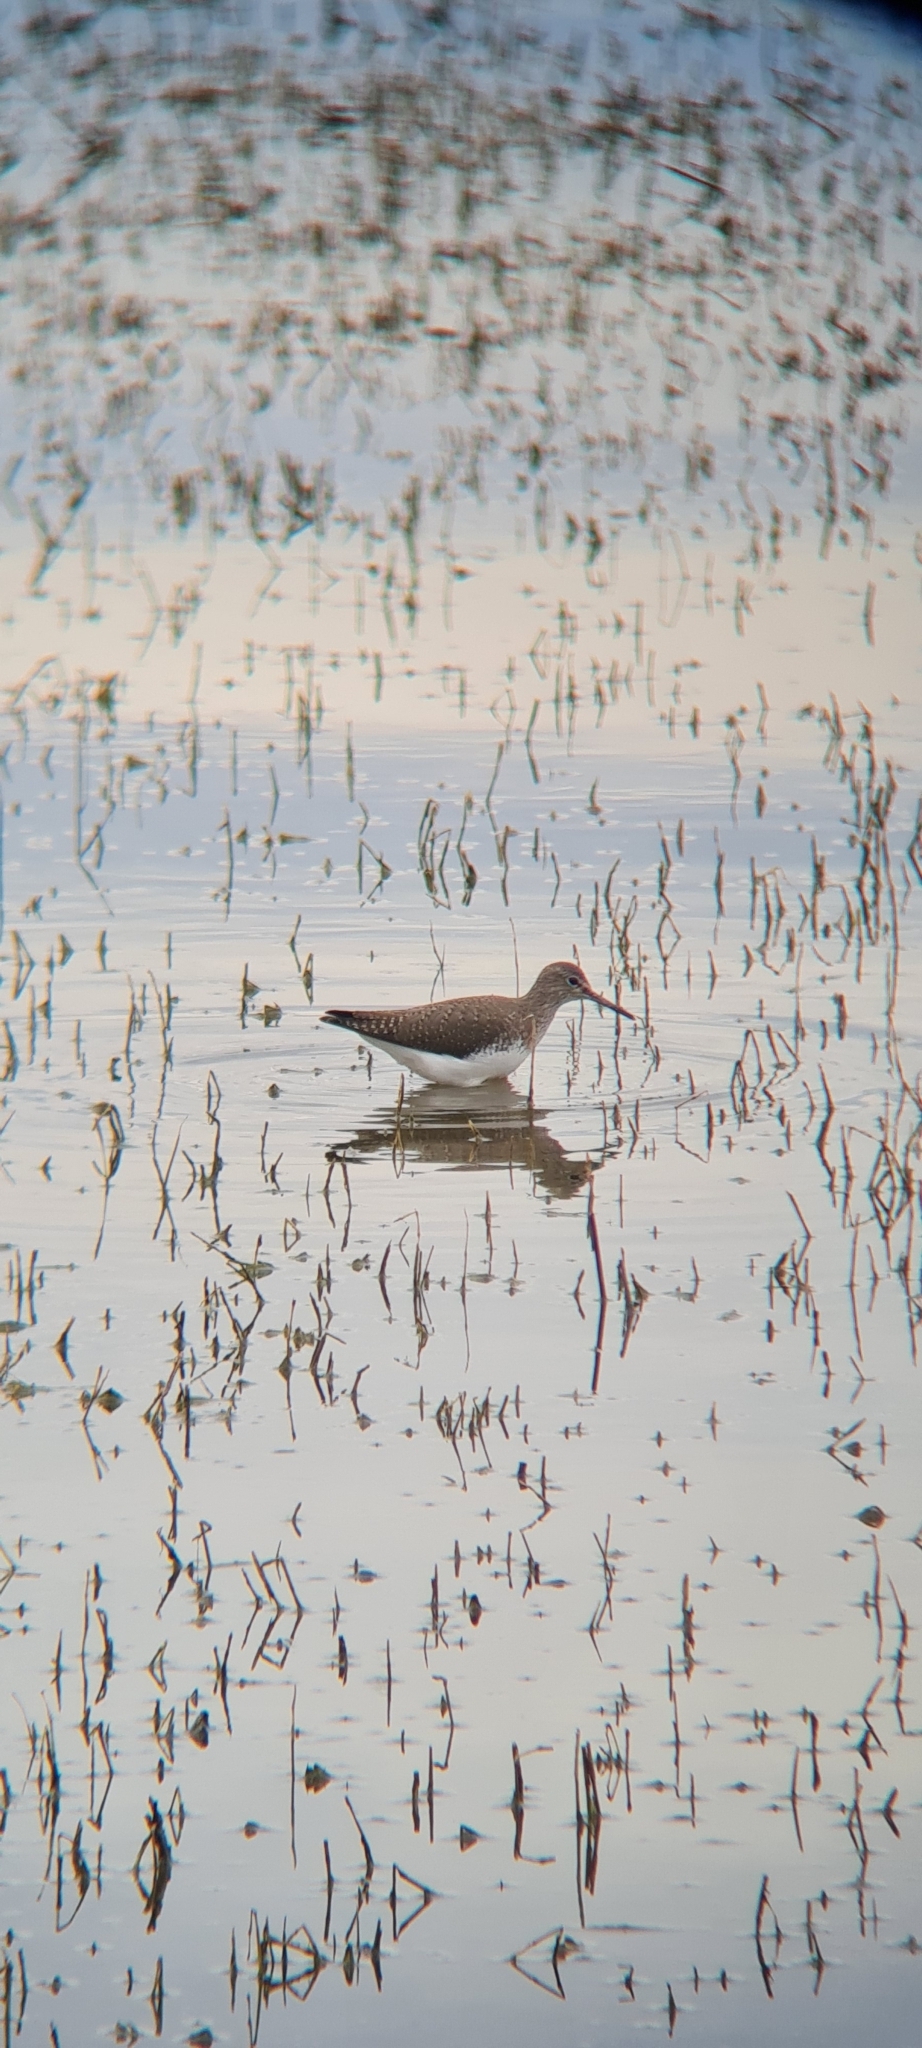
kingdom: Animalia
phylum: Chordata
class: Aves
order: Charadriiformes
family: Scolopacidae
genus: Tringa
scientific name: Tringa ochropus
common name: Green sandpiper
